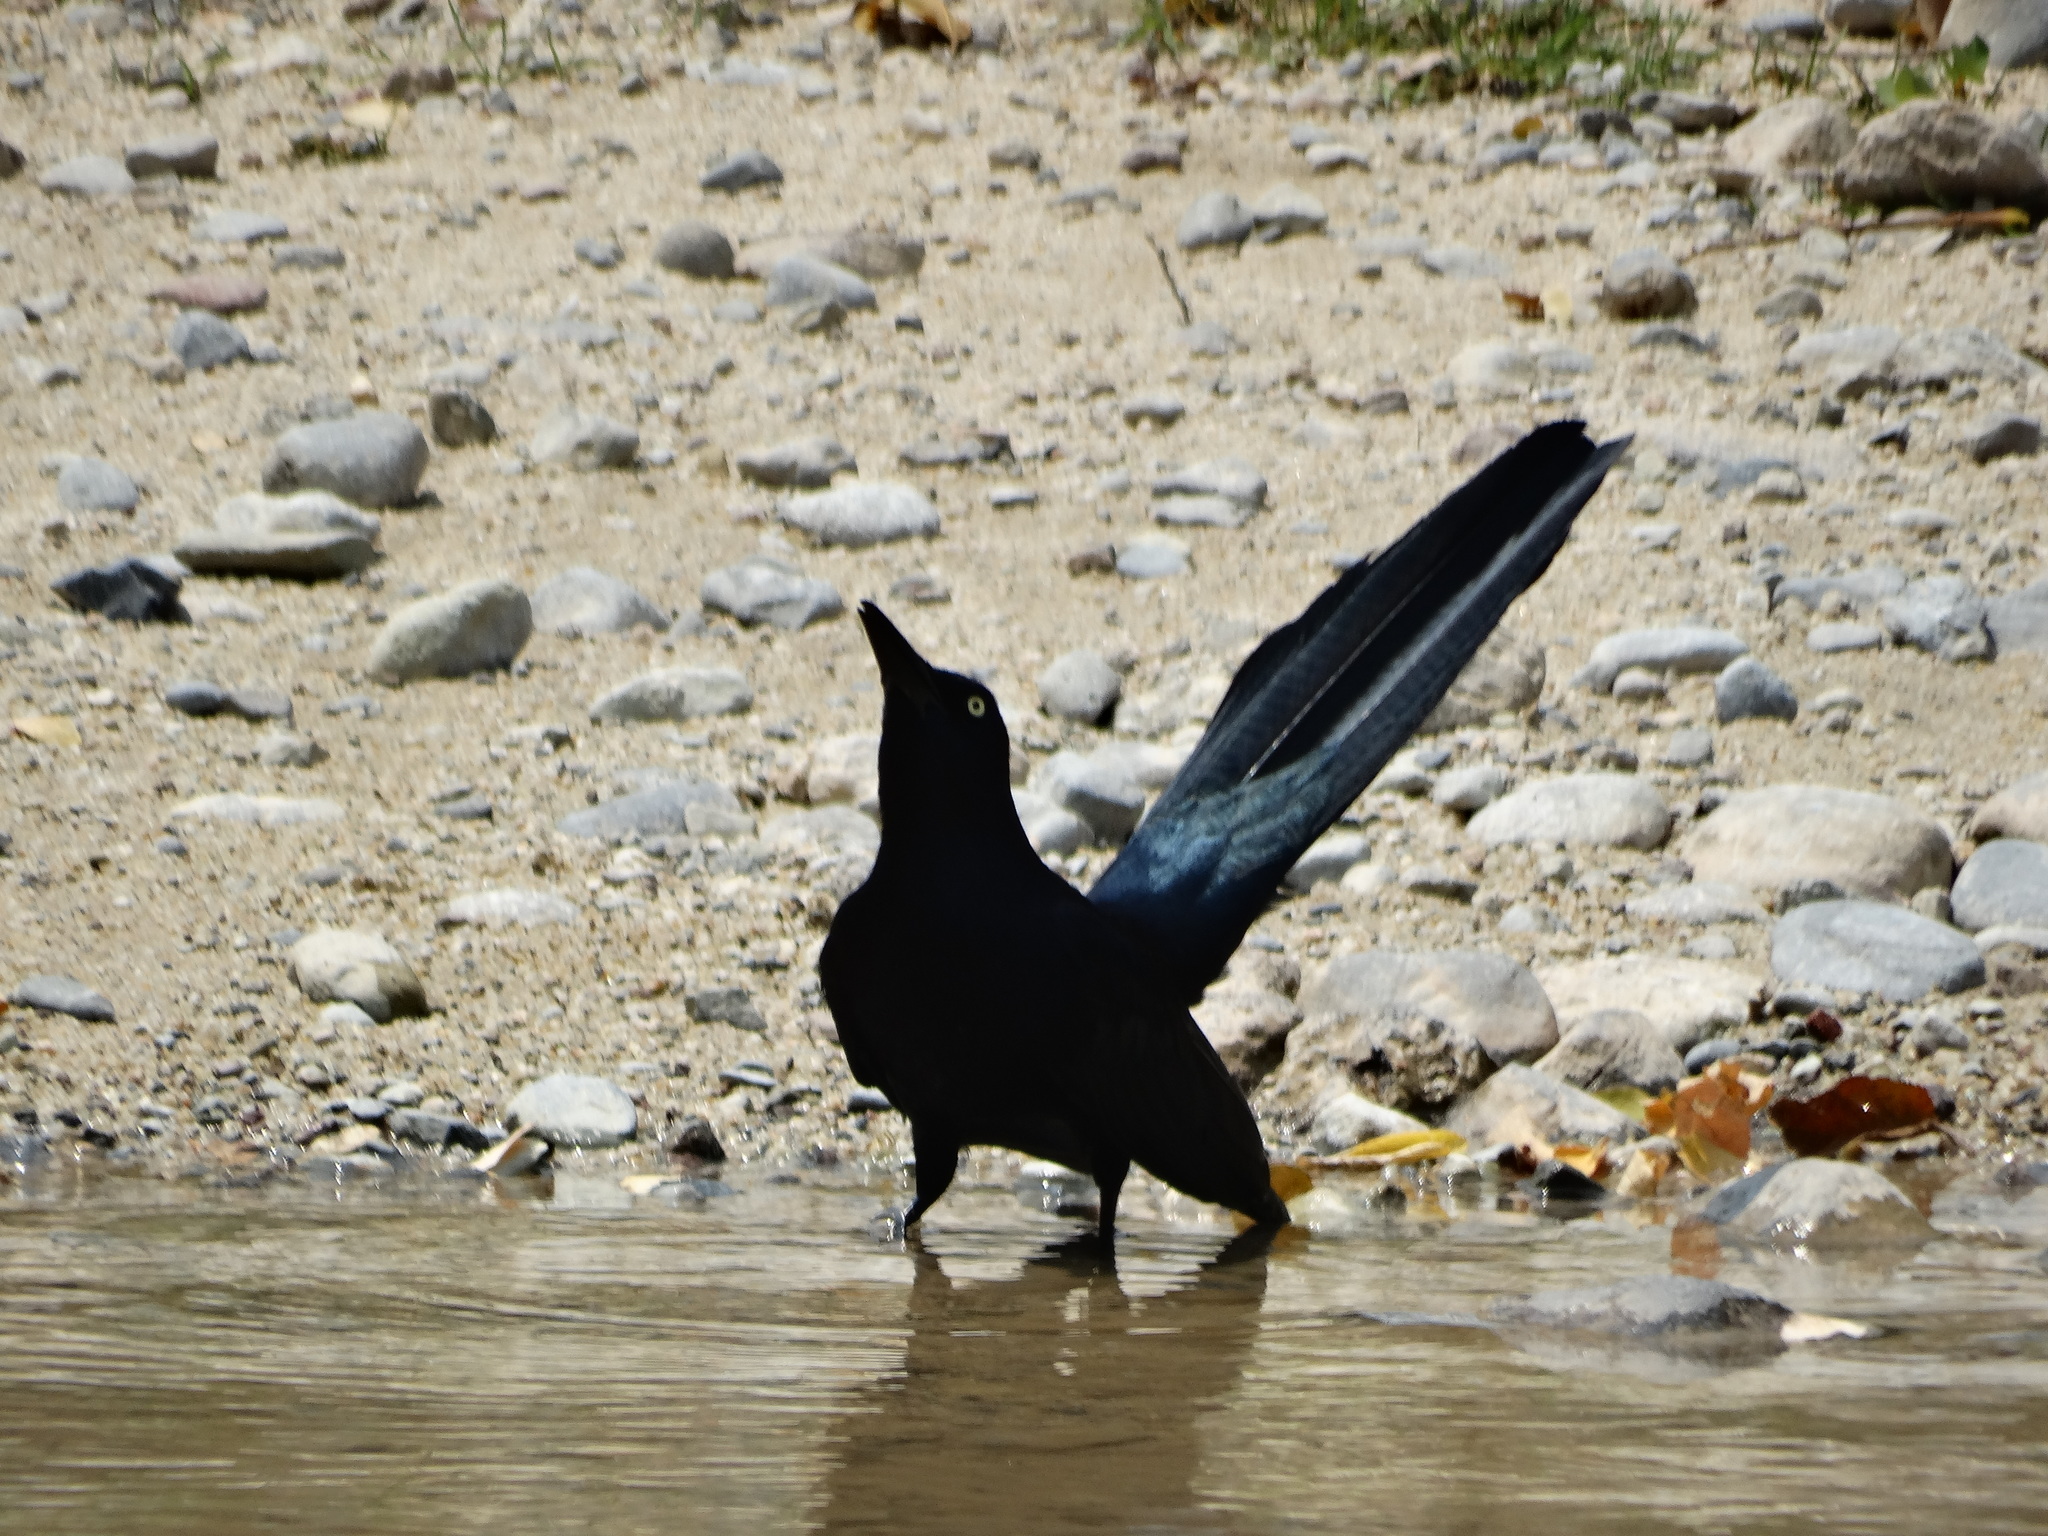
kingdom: Animalia
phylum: Chordata
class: Aves
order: Passeriformes
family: Icteridae
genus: Quiscalus
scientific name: Quiscalus mexicanus
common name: Great-tailed grackle
